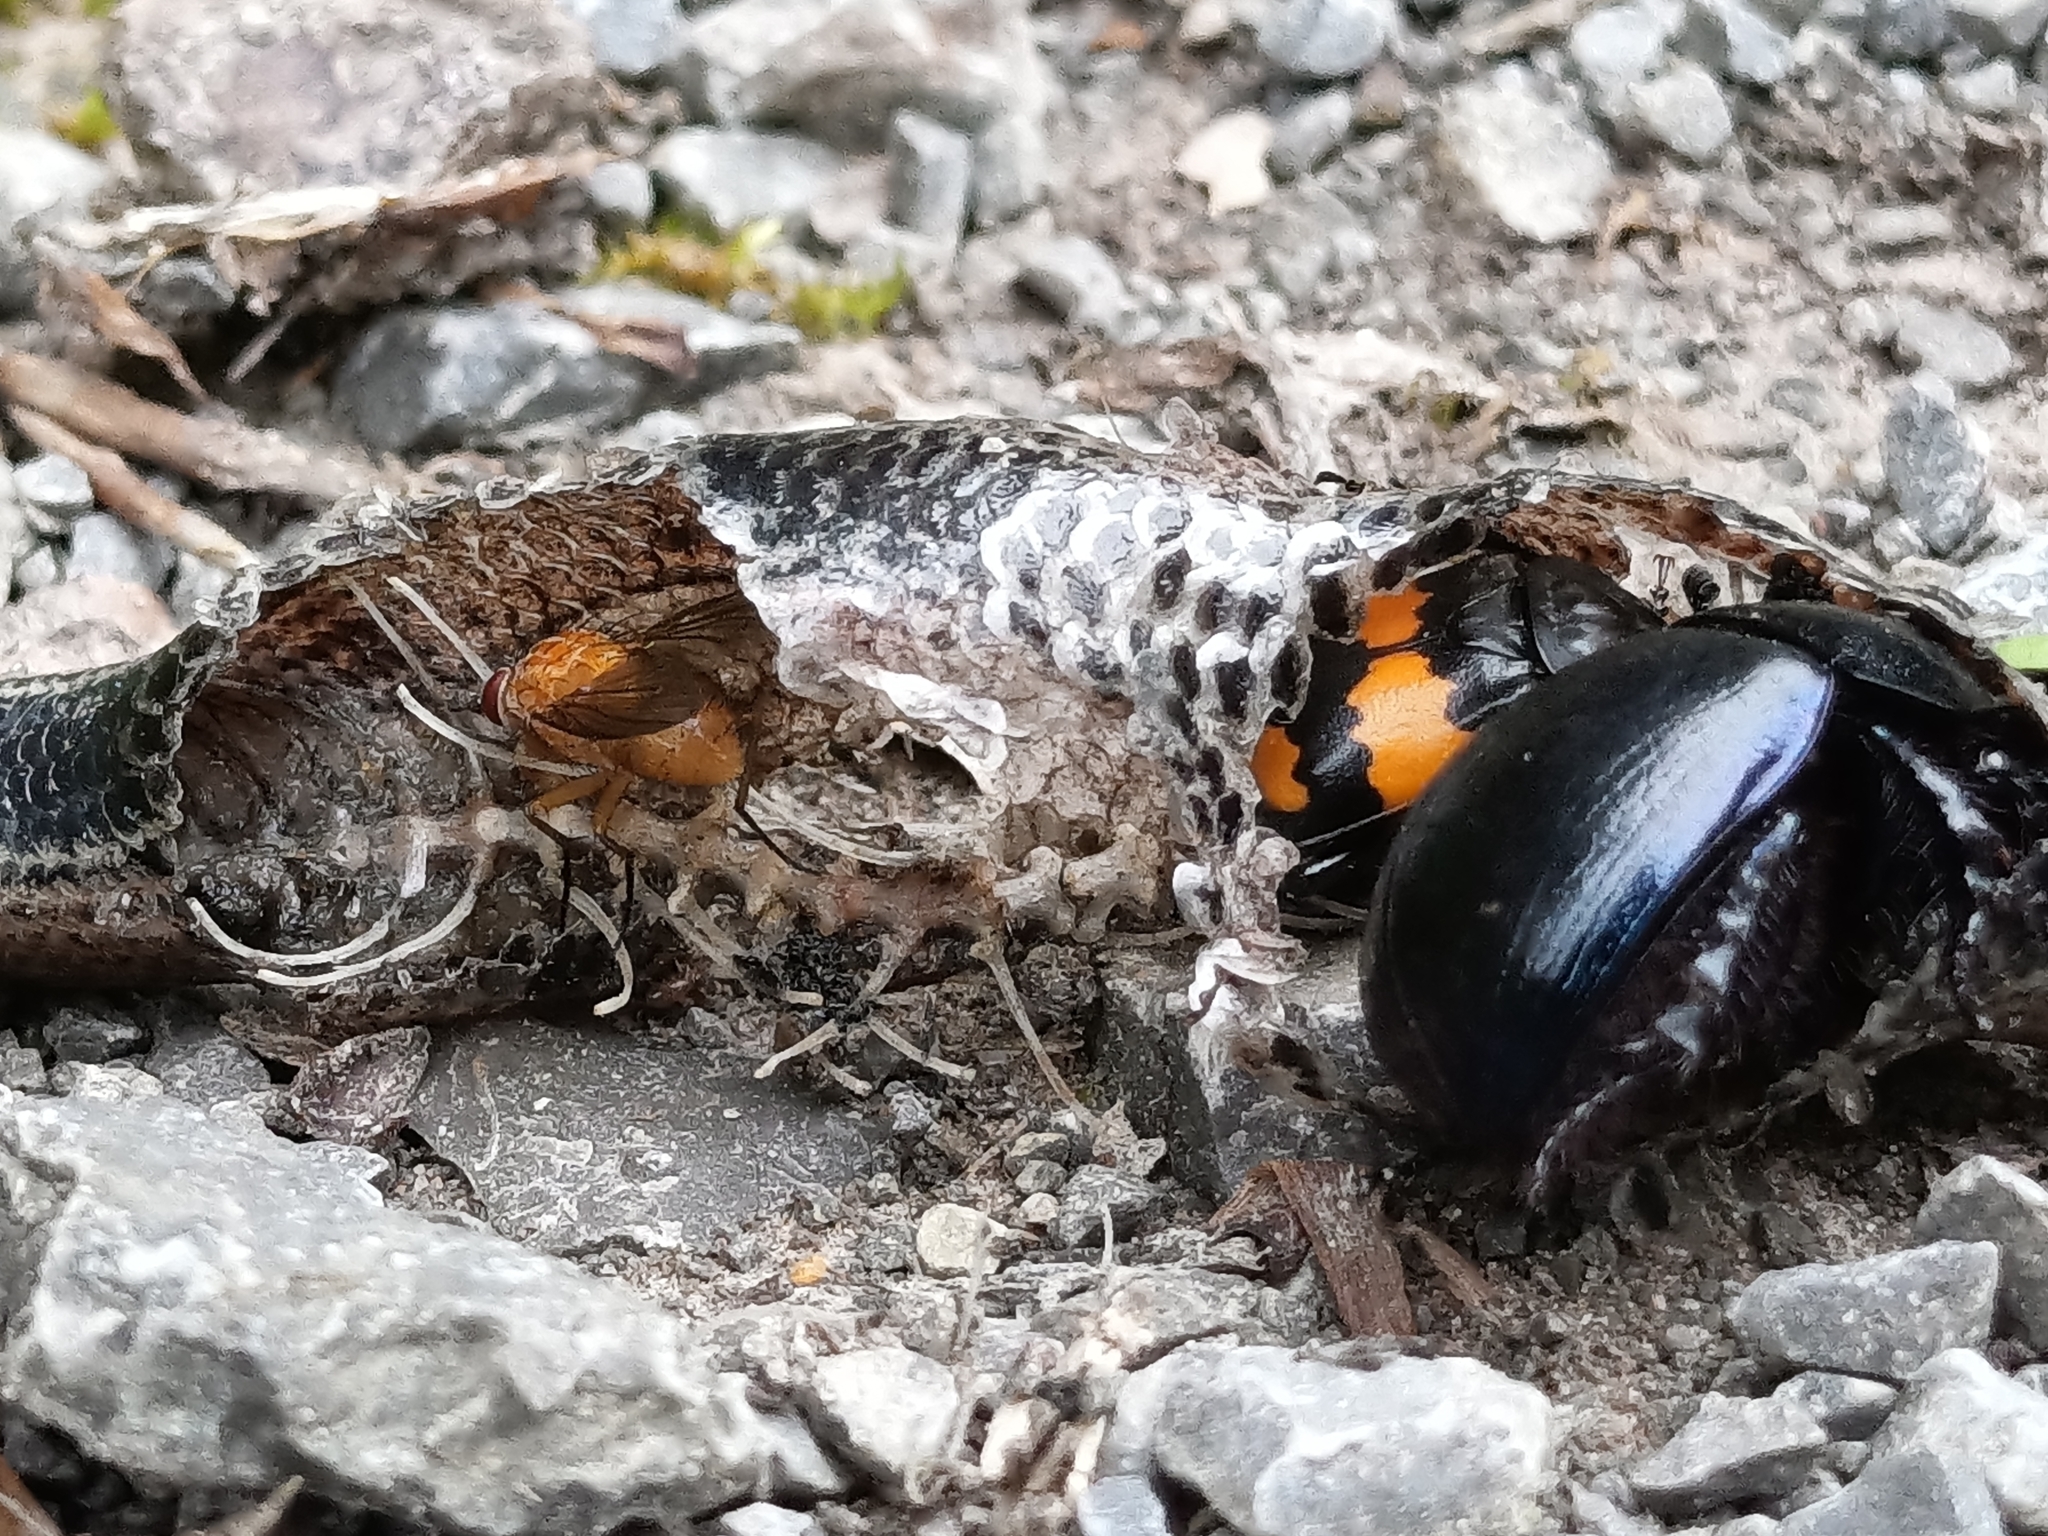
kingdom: Animalia
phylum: Arthropoda
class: Insecta
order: Coleoptera
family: Staphylinidae
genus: Nicrophorus
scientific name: Nicrophorus vespilloides
